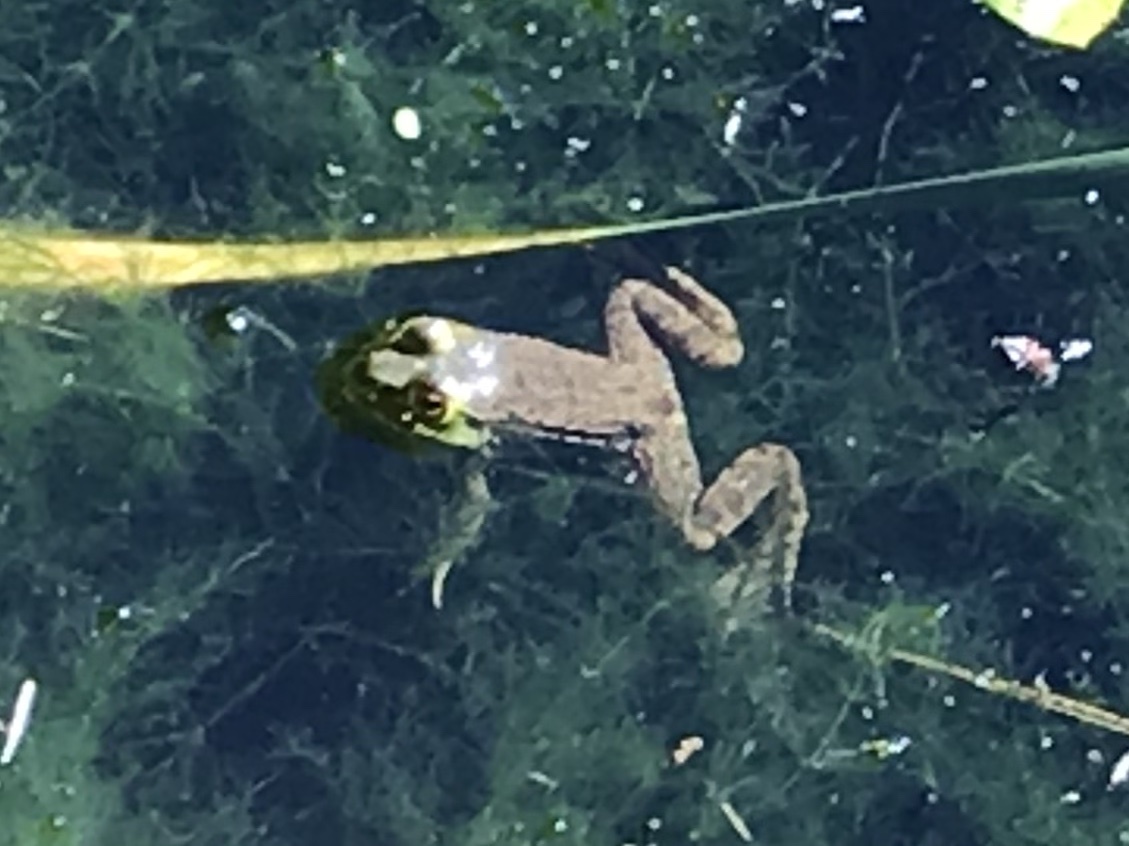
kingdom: Animalia
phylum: Chordata
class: Amphibia
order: Anura
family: Ranidae
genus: Lithobates
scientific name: Lithobates clamitans
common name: Green frog
